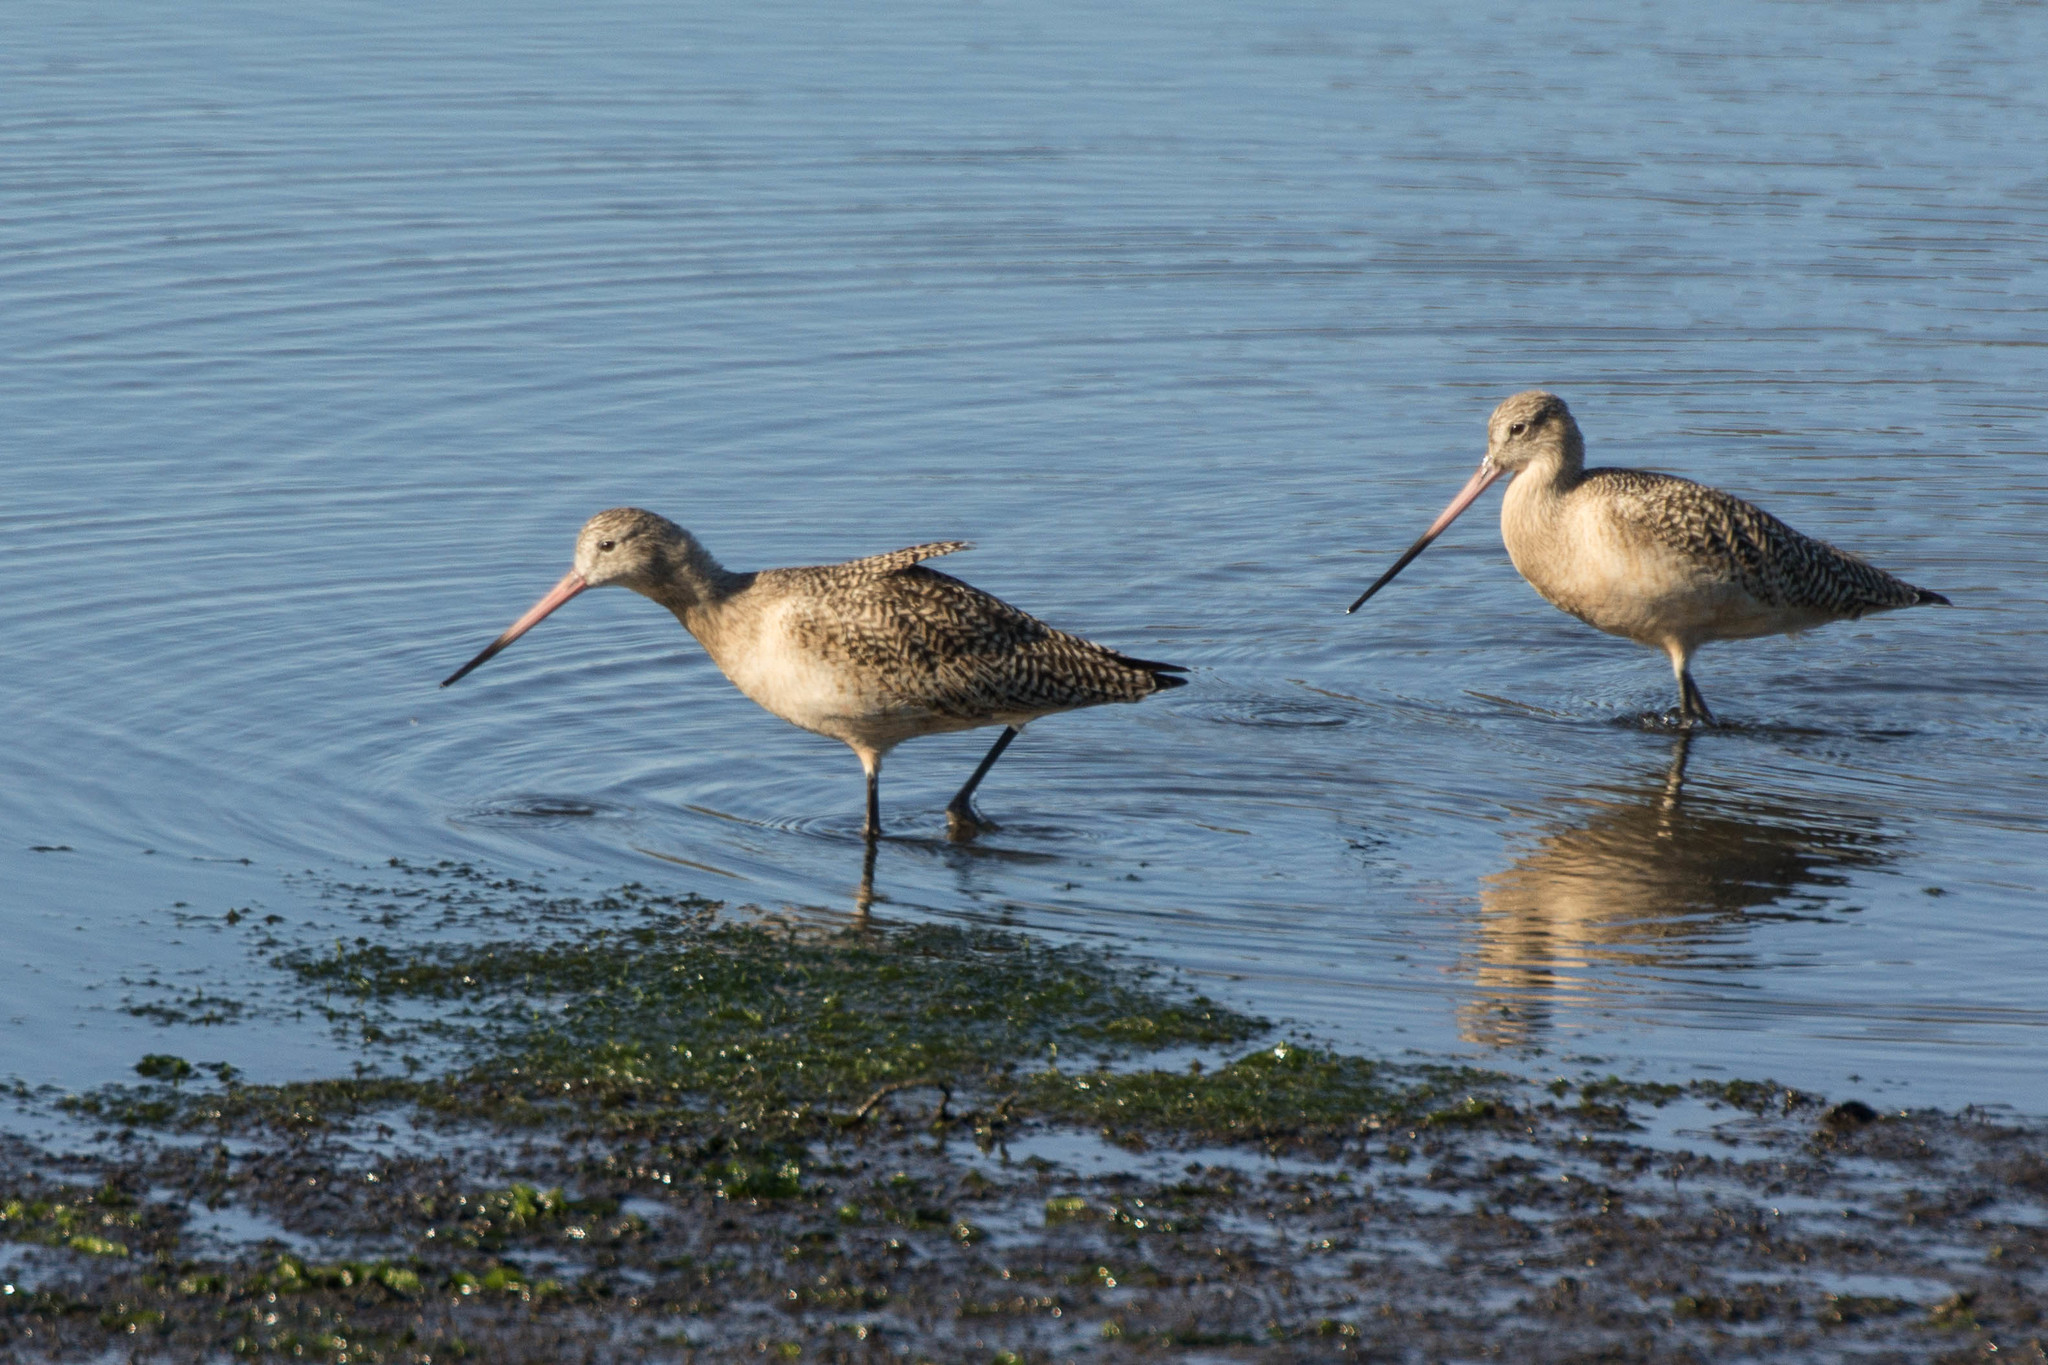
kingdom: Animalia
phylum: Chordata
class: Aves
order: Charadriiformes
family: Scolopacidae
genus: Limosa
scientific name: Limosa fedoa
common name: Marbled godwit
